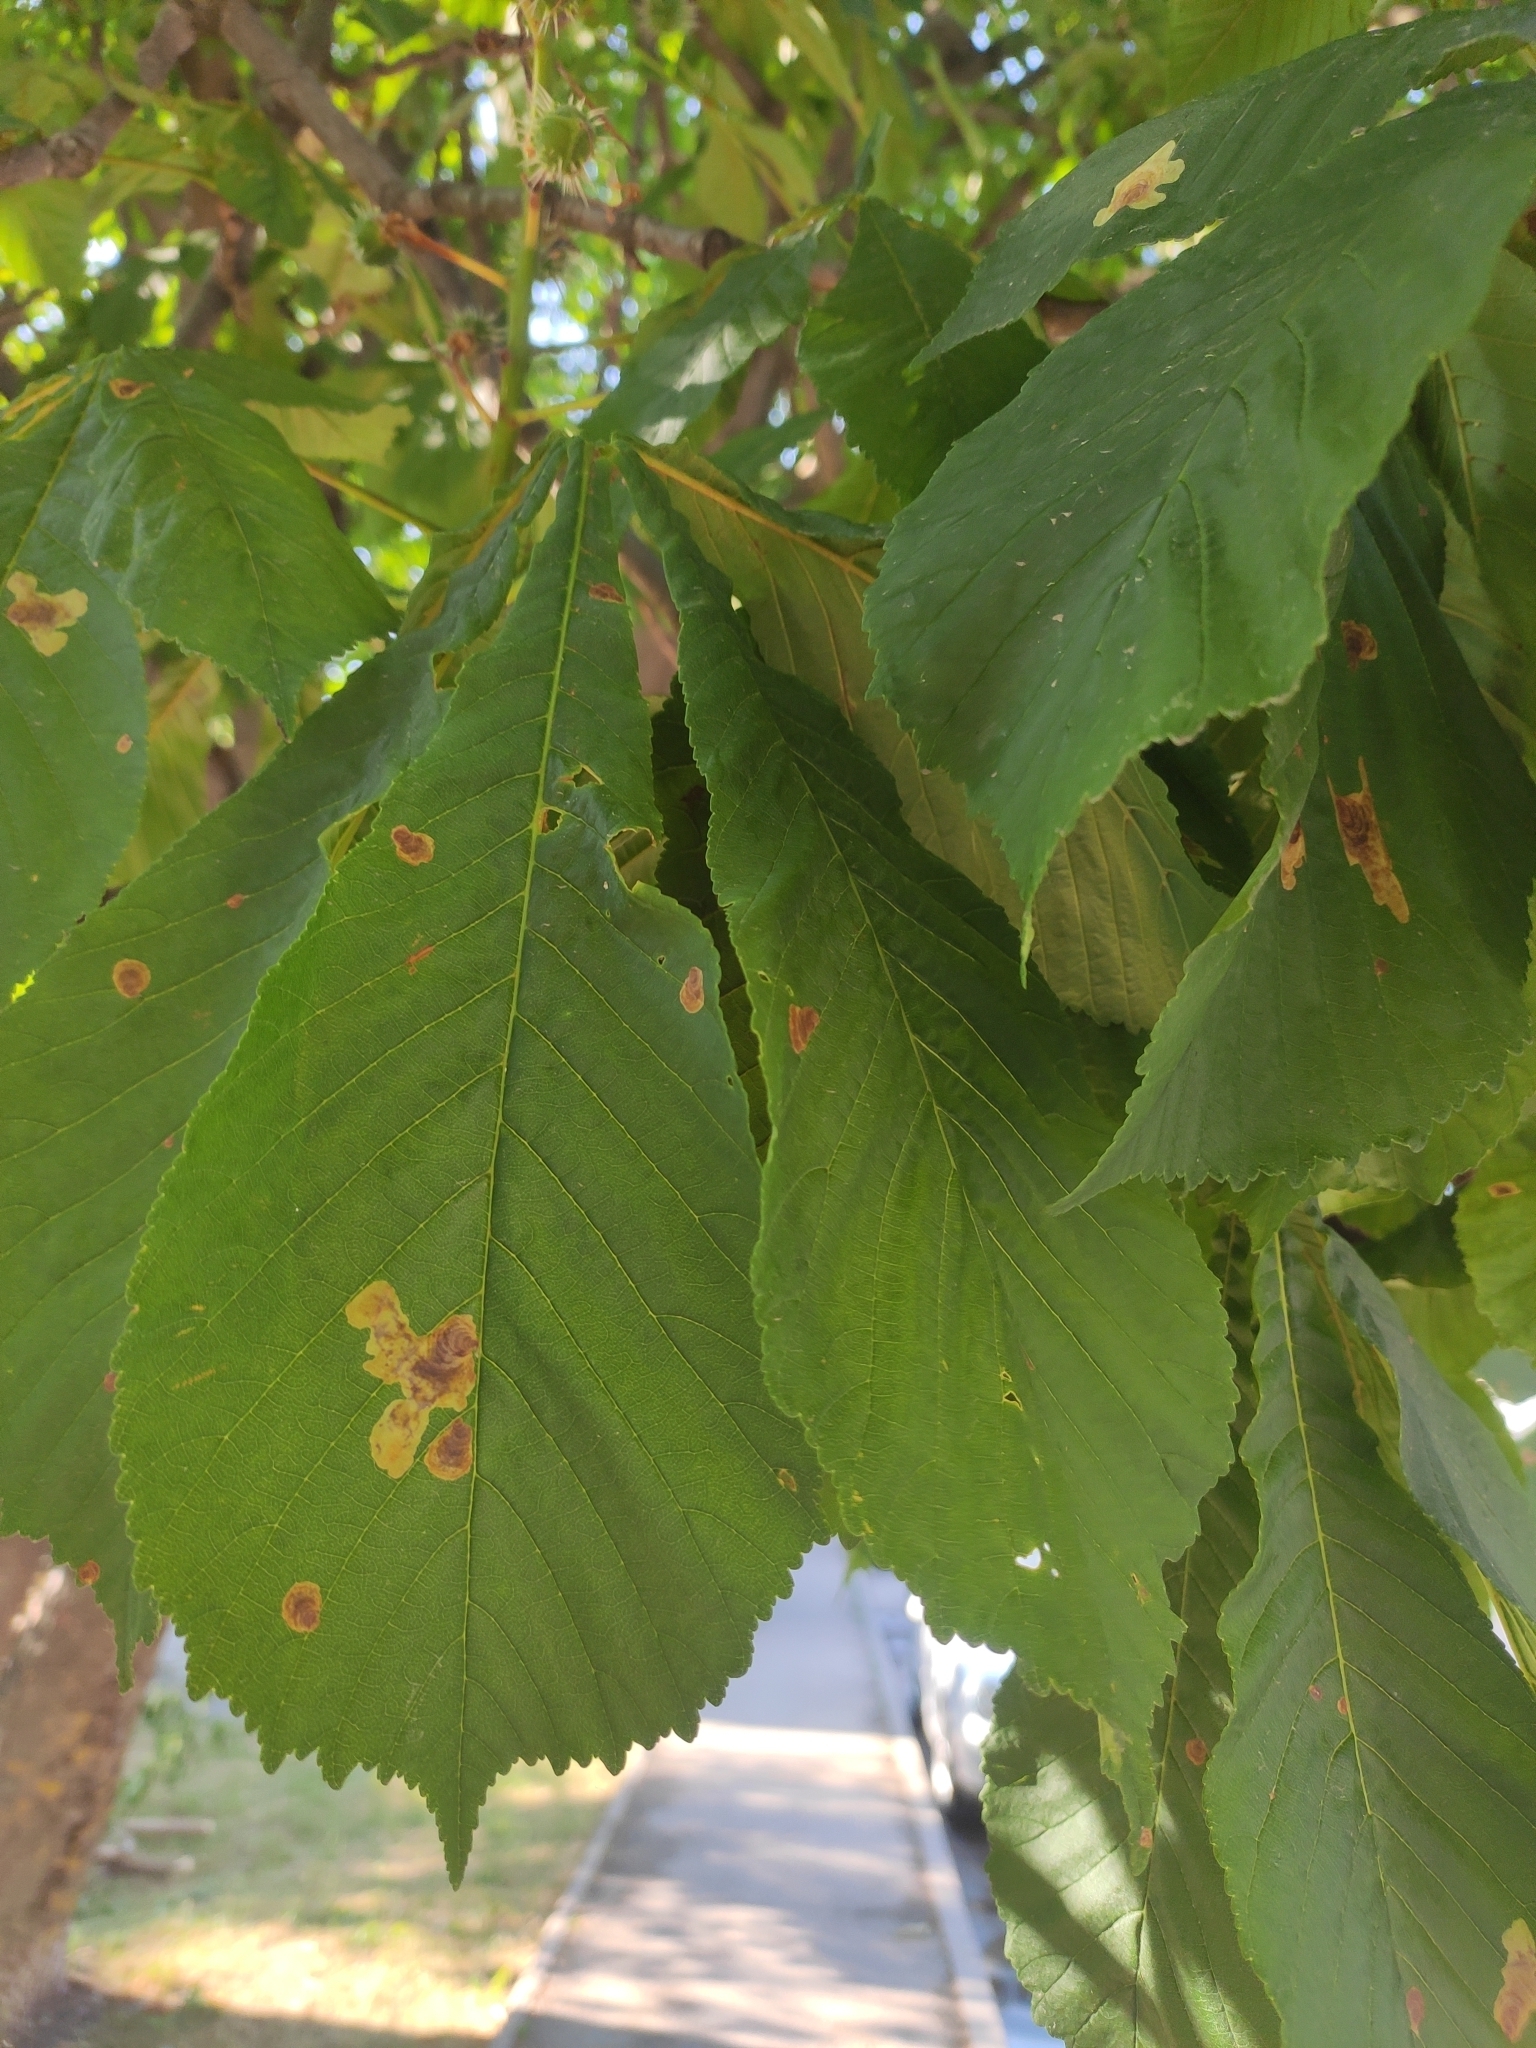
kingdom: Animalia
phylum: Arthropoda
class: Insecta
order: Lepidoptera
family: Gracillariidae
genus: Cameraria
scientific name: Cameraria ohridella
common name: Horse-chestnut leaf-miner
